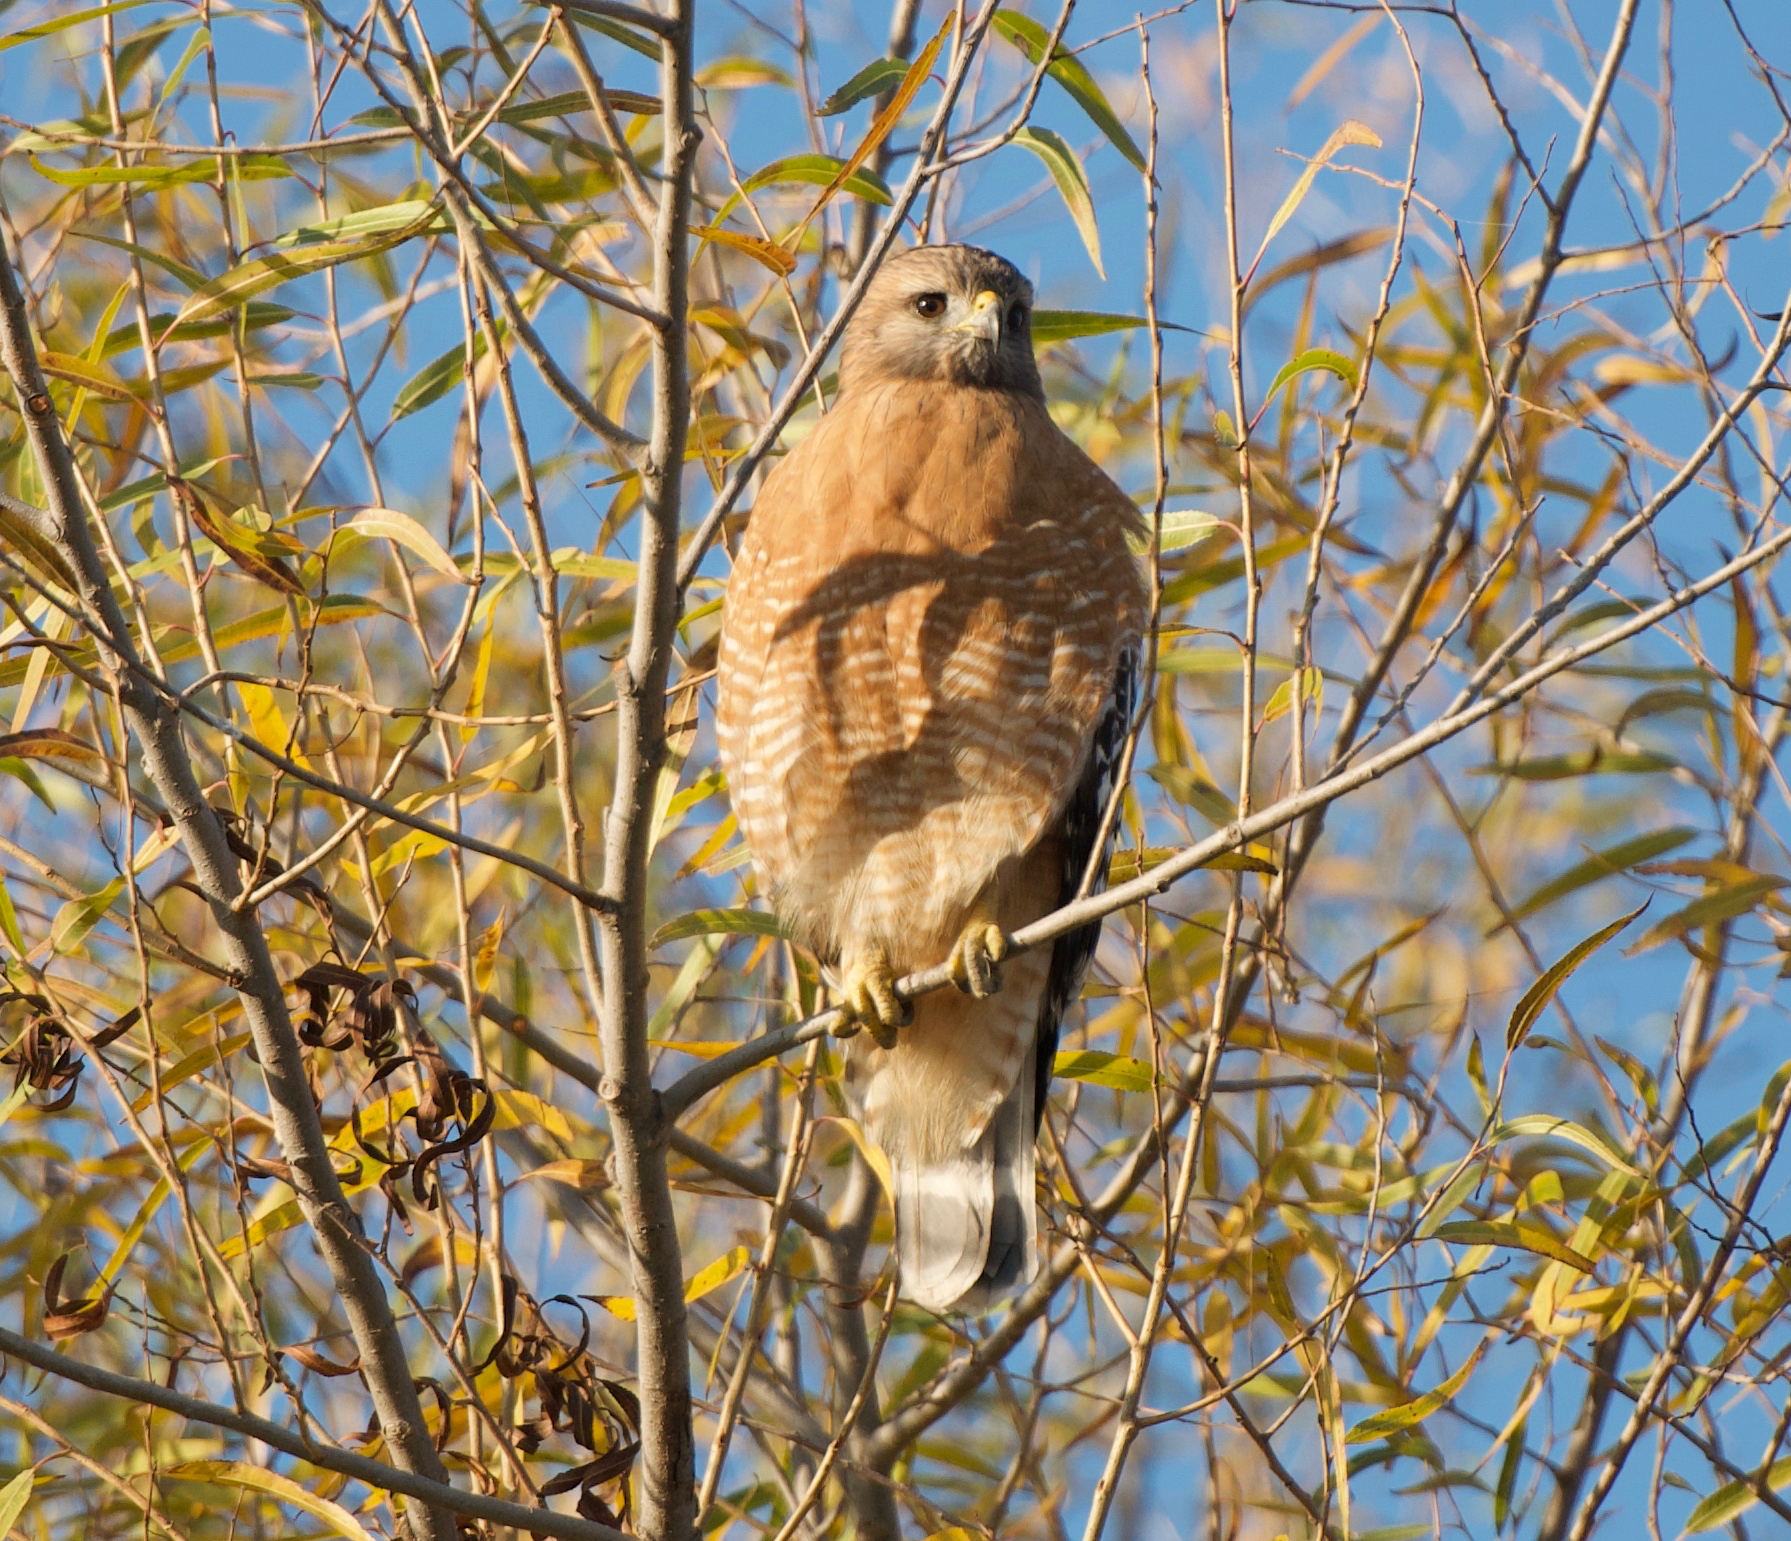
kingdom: Animalia
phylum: Chordata
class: Aves
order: Accipitriformes
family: Accipitridae
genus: Buteo
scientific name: Buteo lineatus
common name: Red-shouldered hawk
